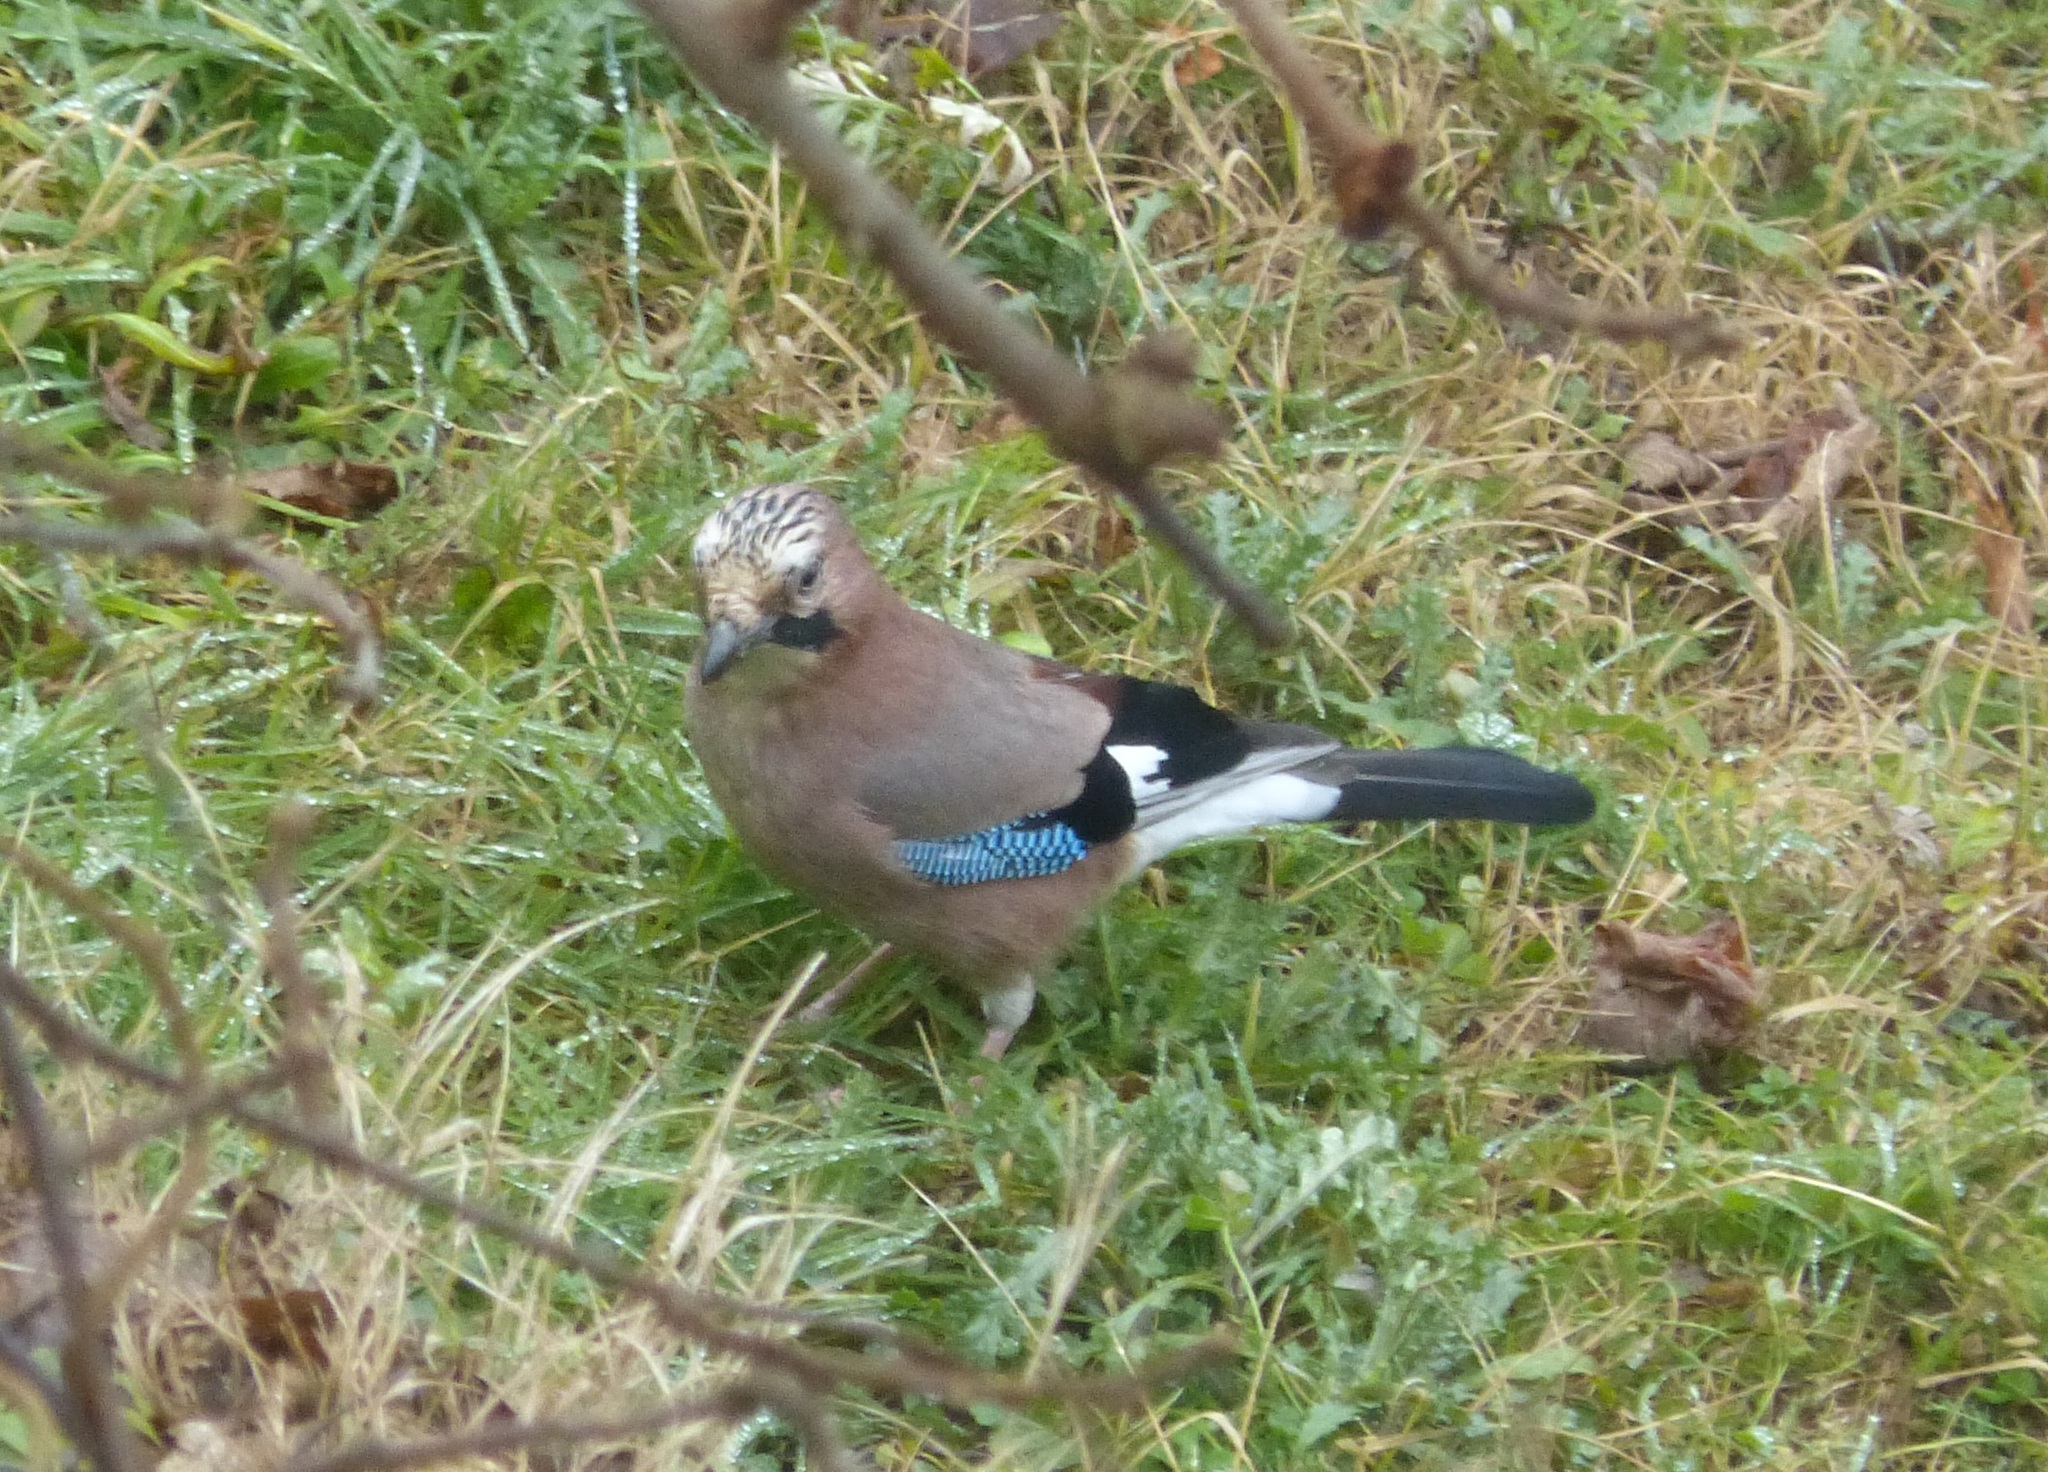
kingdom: Animalia
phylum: Chordata
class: Aves
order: Passeriformes
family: Corvidae
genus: Garrulus
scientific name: Garrulus glandarius
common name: Eurasian jay
